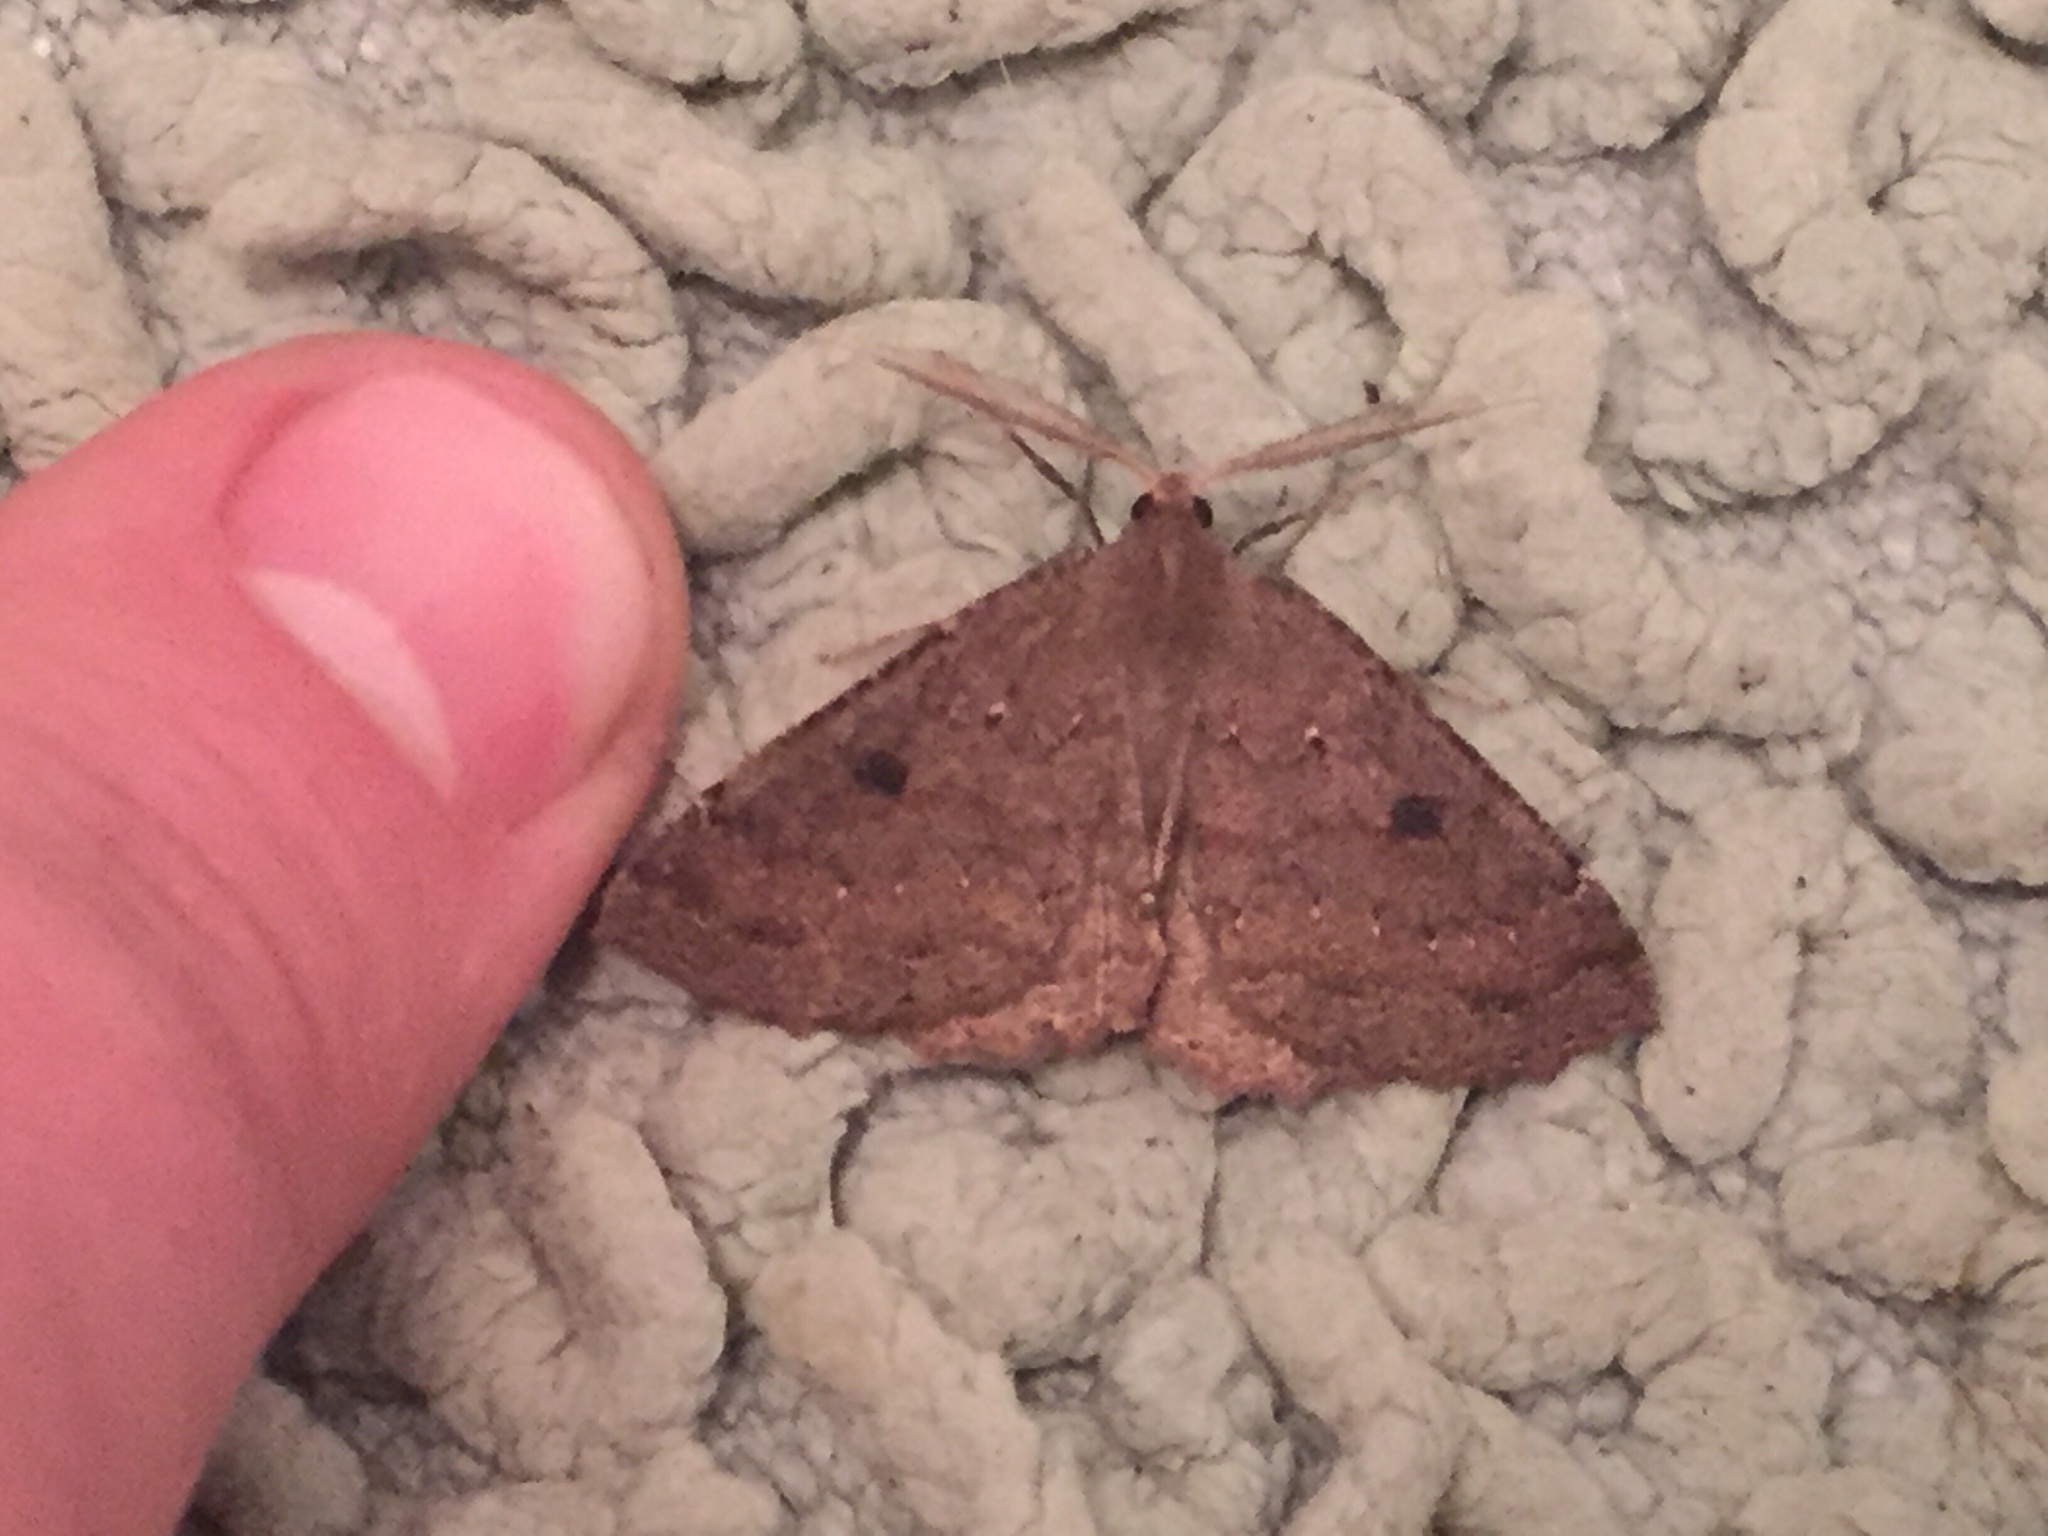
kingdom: Animalia
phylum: Arthropoda
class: Insecta
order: Lepidoptera
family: Geometridae
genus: Cleora
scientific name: Cleora scriptaria
